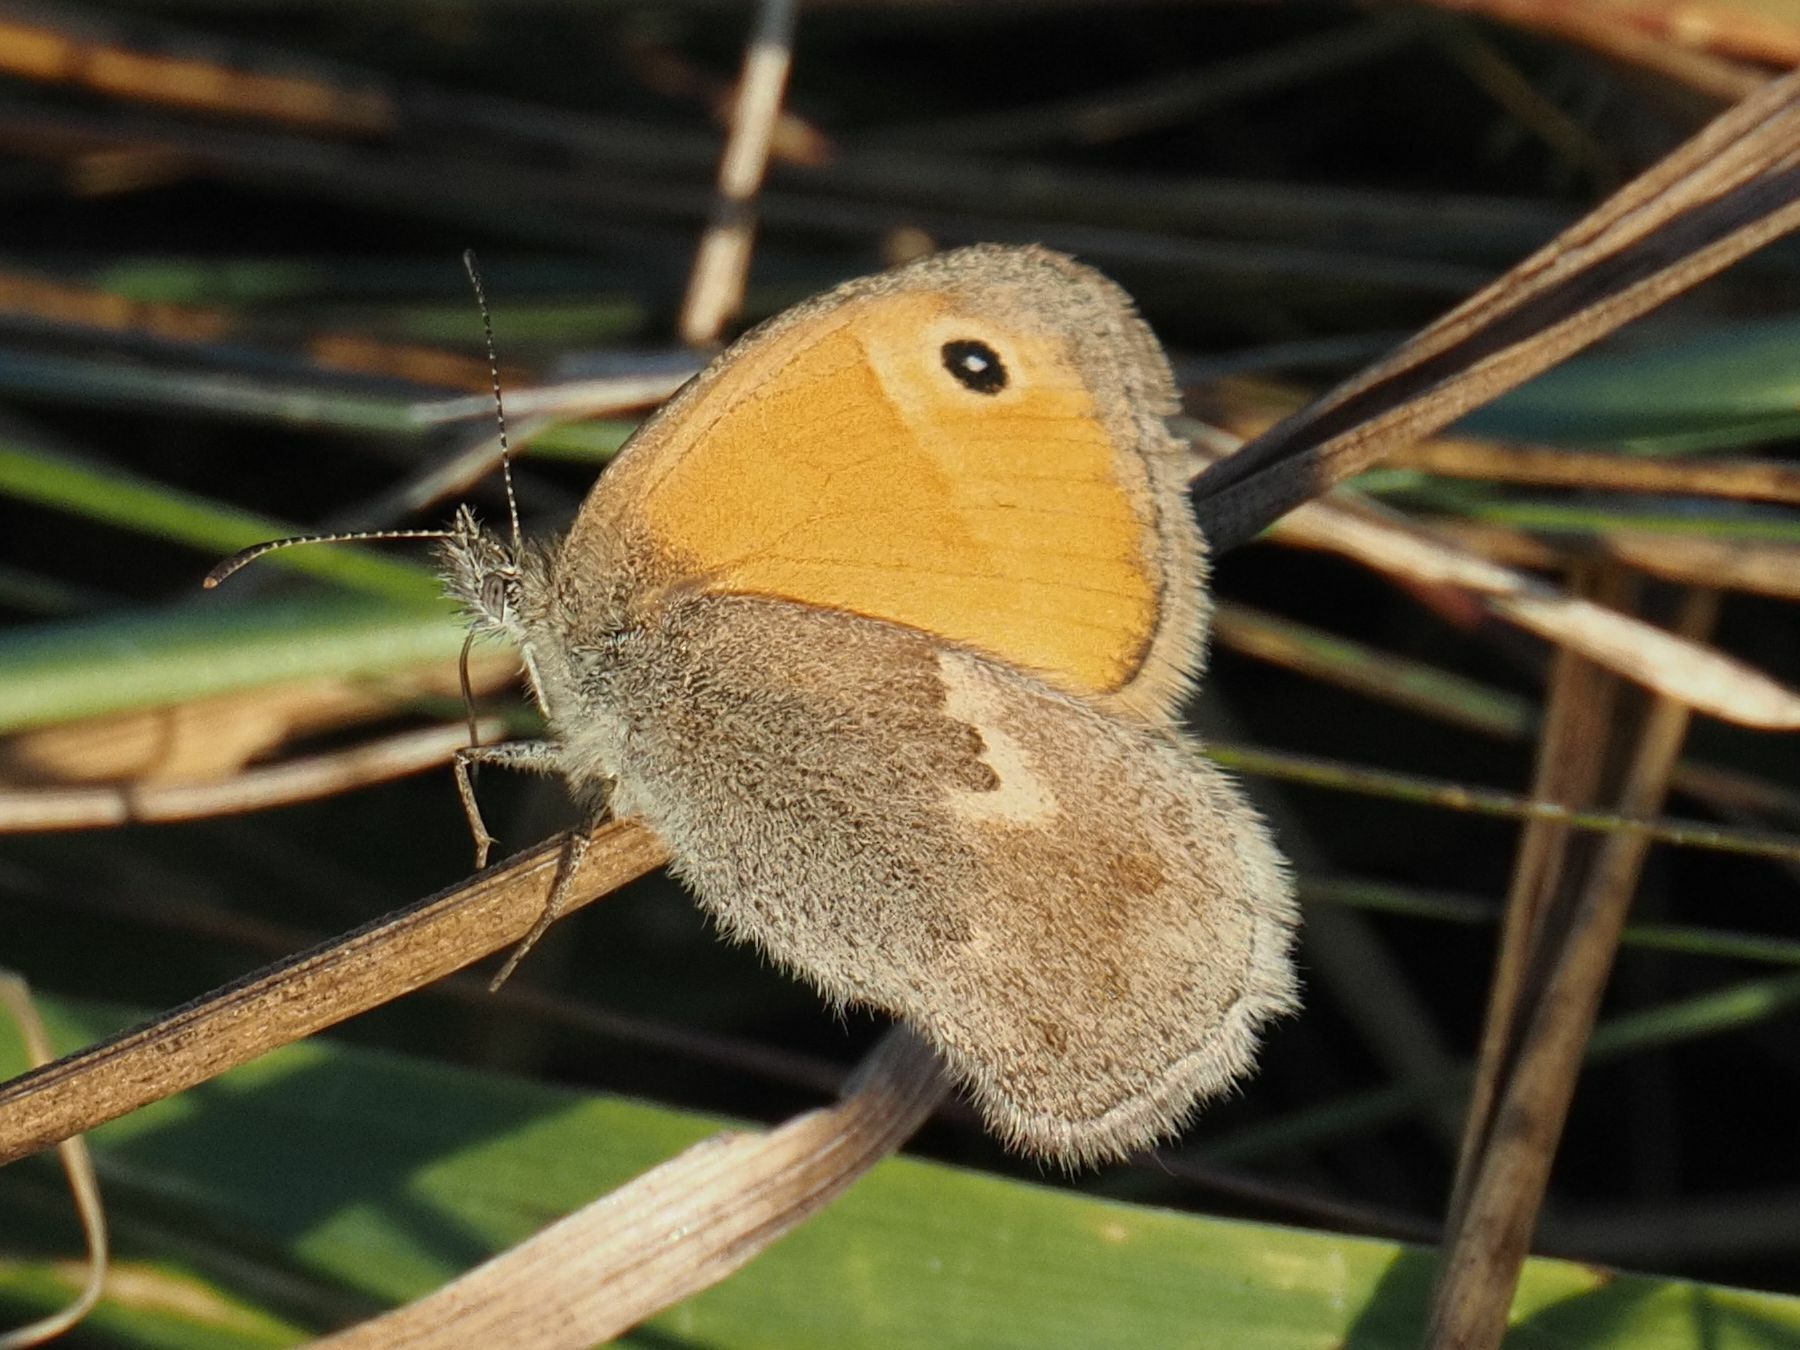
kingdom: Animalia
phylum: Arthropoda
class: Insecta
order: Lepidoptera
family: Nymphalidae
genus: Coenonympha
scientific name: Coenonympha pamphilus
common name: Small heath
